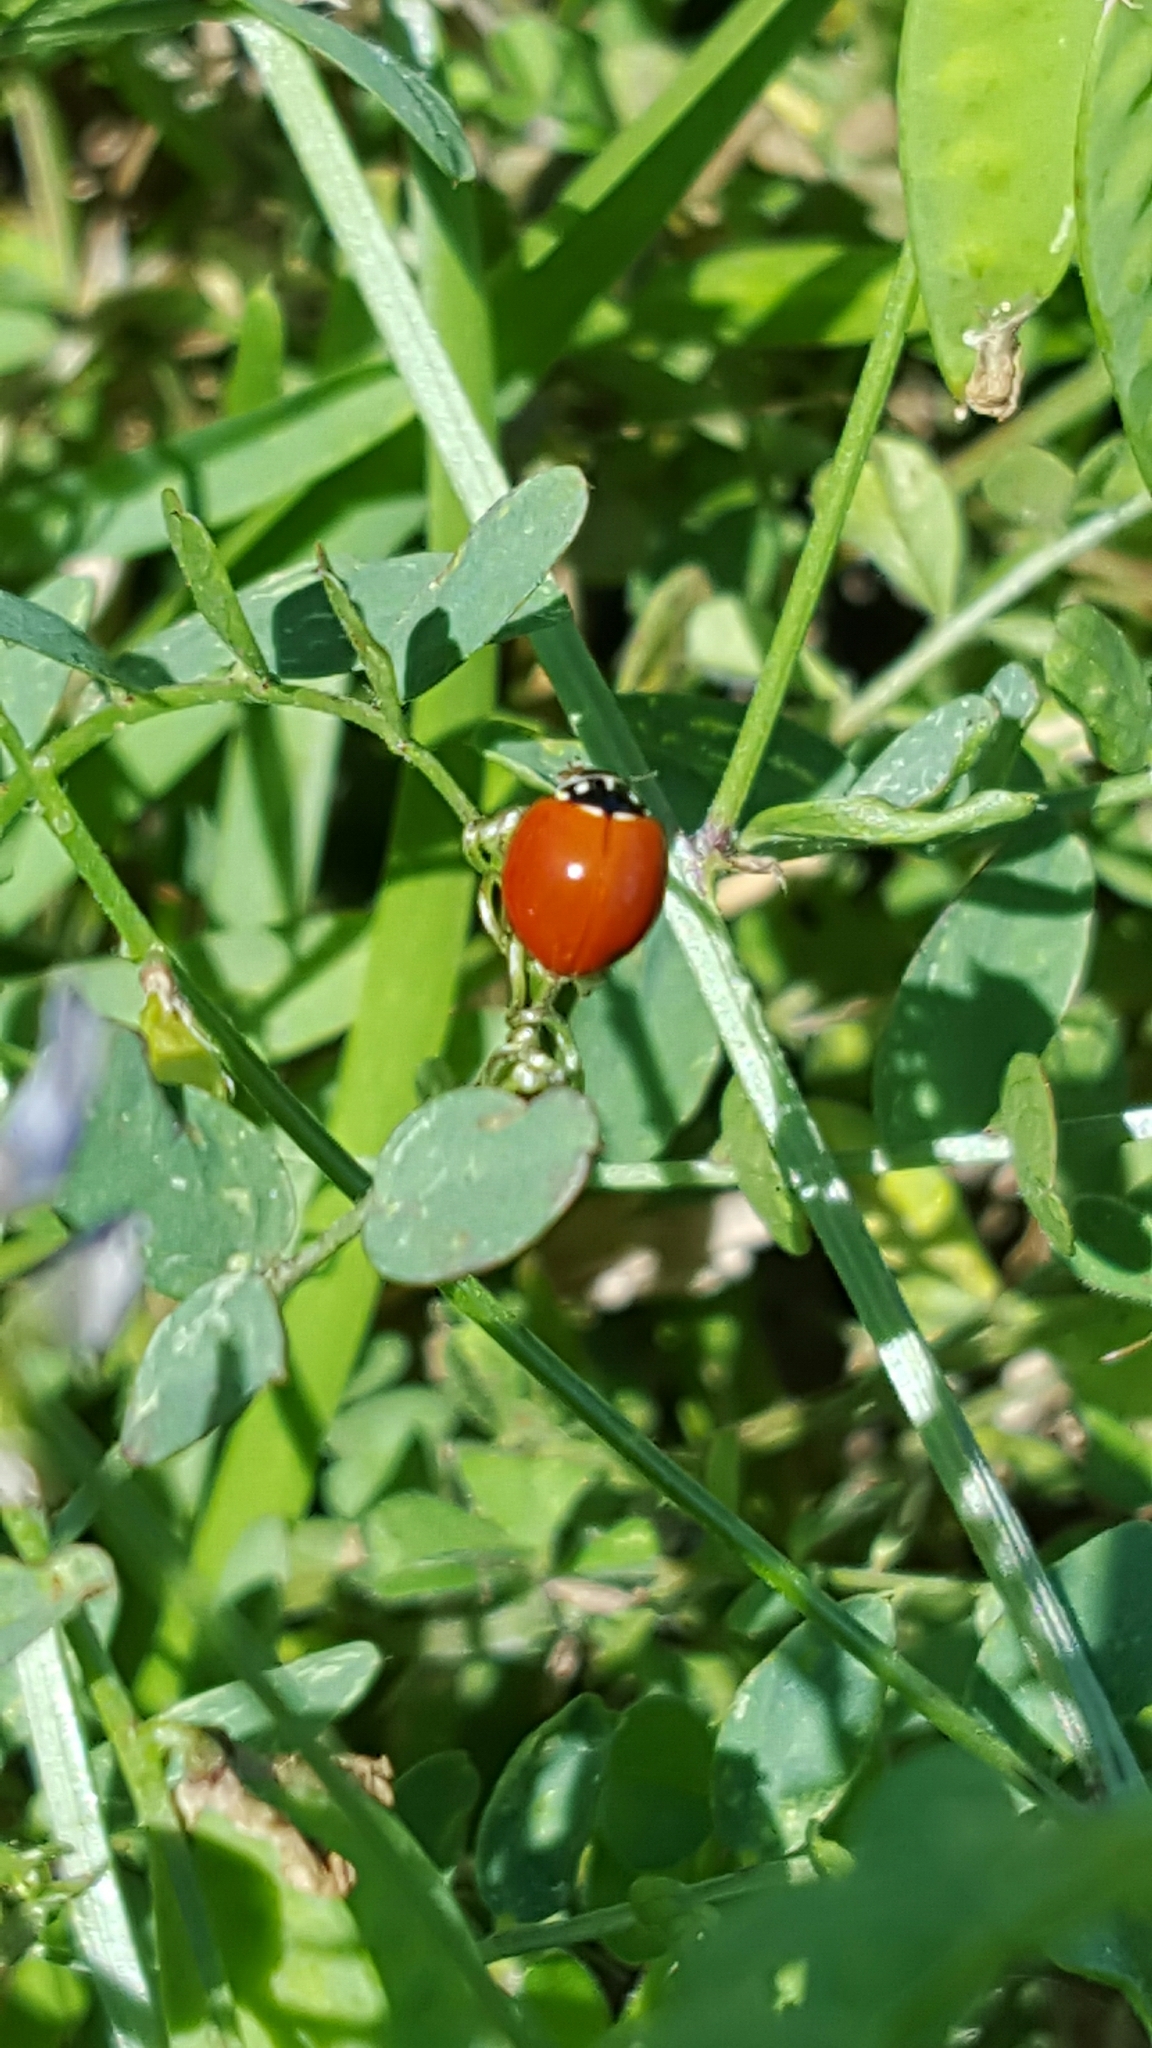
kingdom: Animalia
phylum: Arthropoda
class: Insecta
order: Coleoptera
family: Coccinellidae
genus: Cycloneda
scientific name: Cycloneda sanguinea
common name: Ladybird beetle
